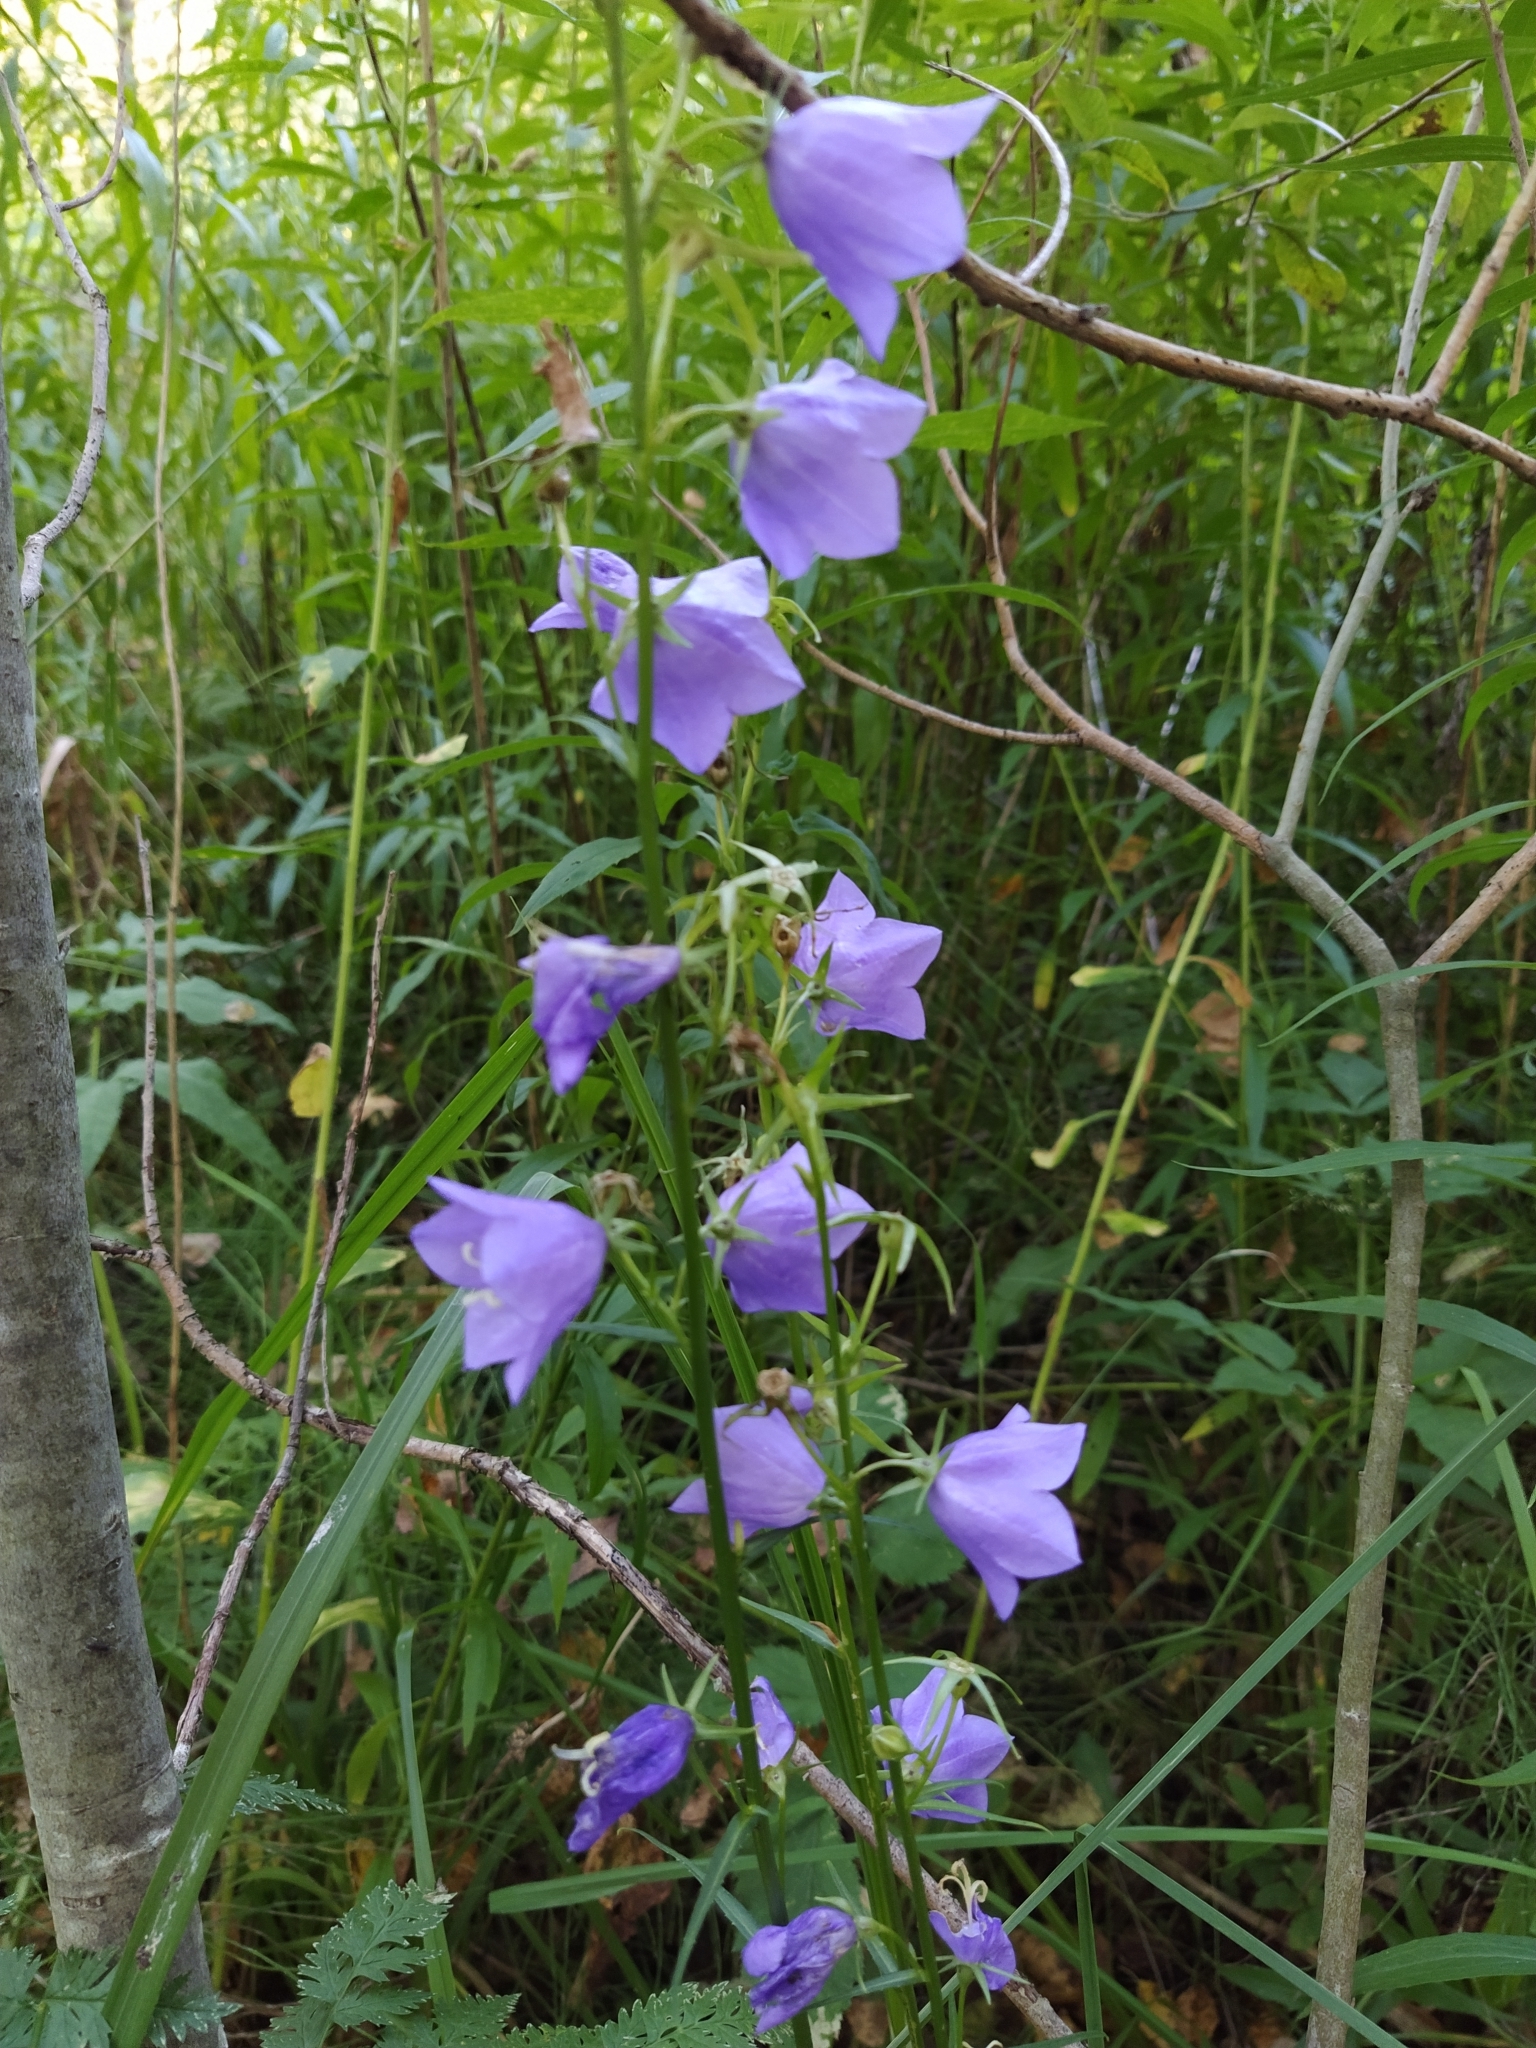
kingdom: Plantae
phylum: Tracheophyta
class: Magnoliopsida
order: Asterales
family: Campanulaceae
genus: Campanula
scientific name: Campanula persicifolia
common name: Peach-leaved bellflower
